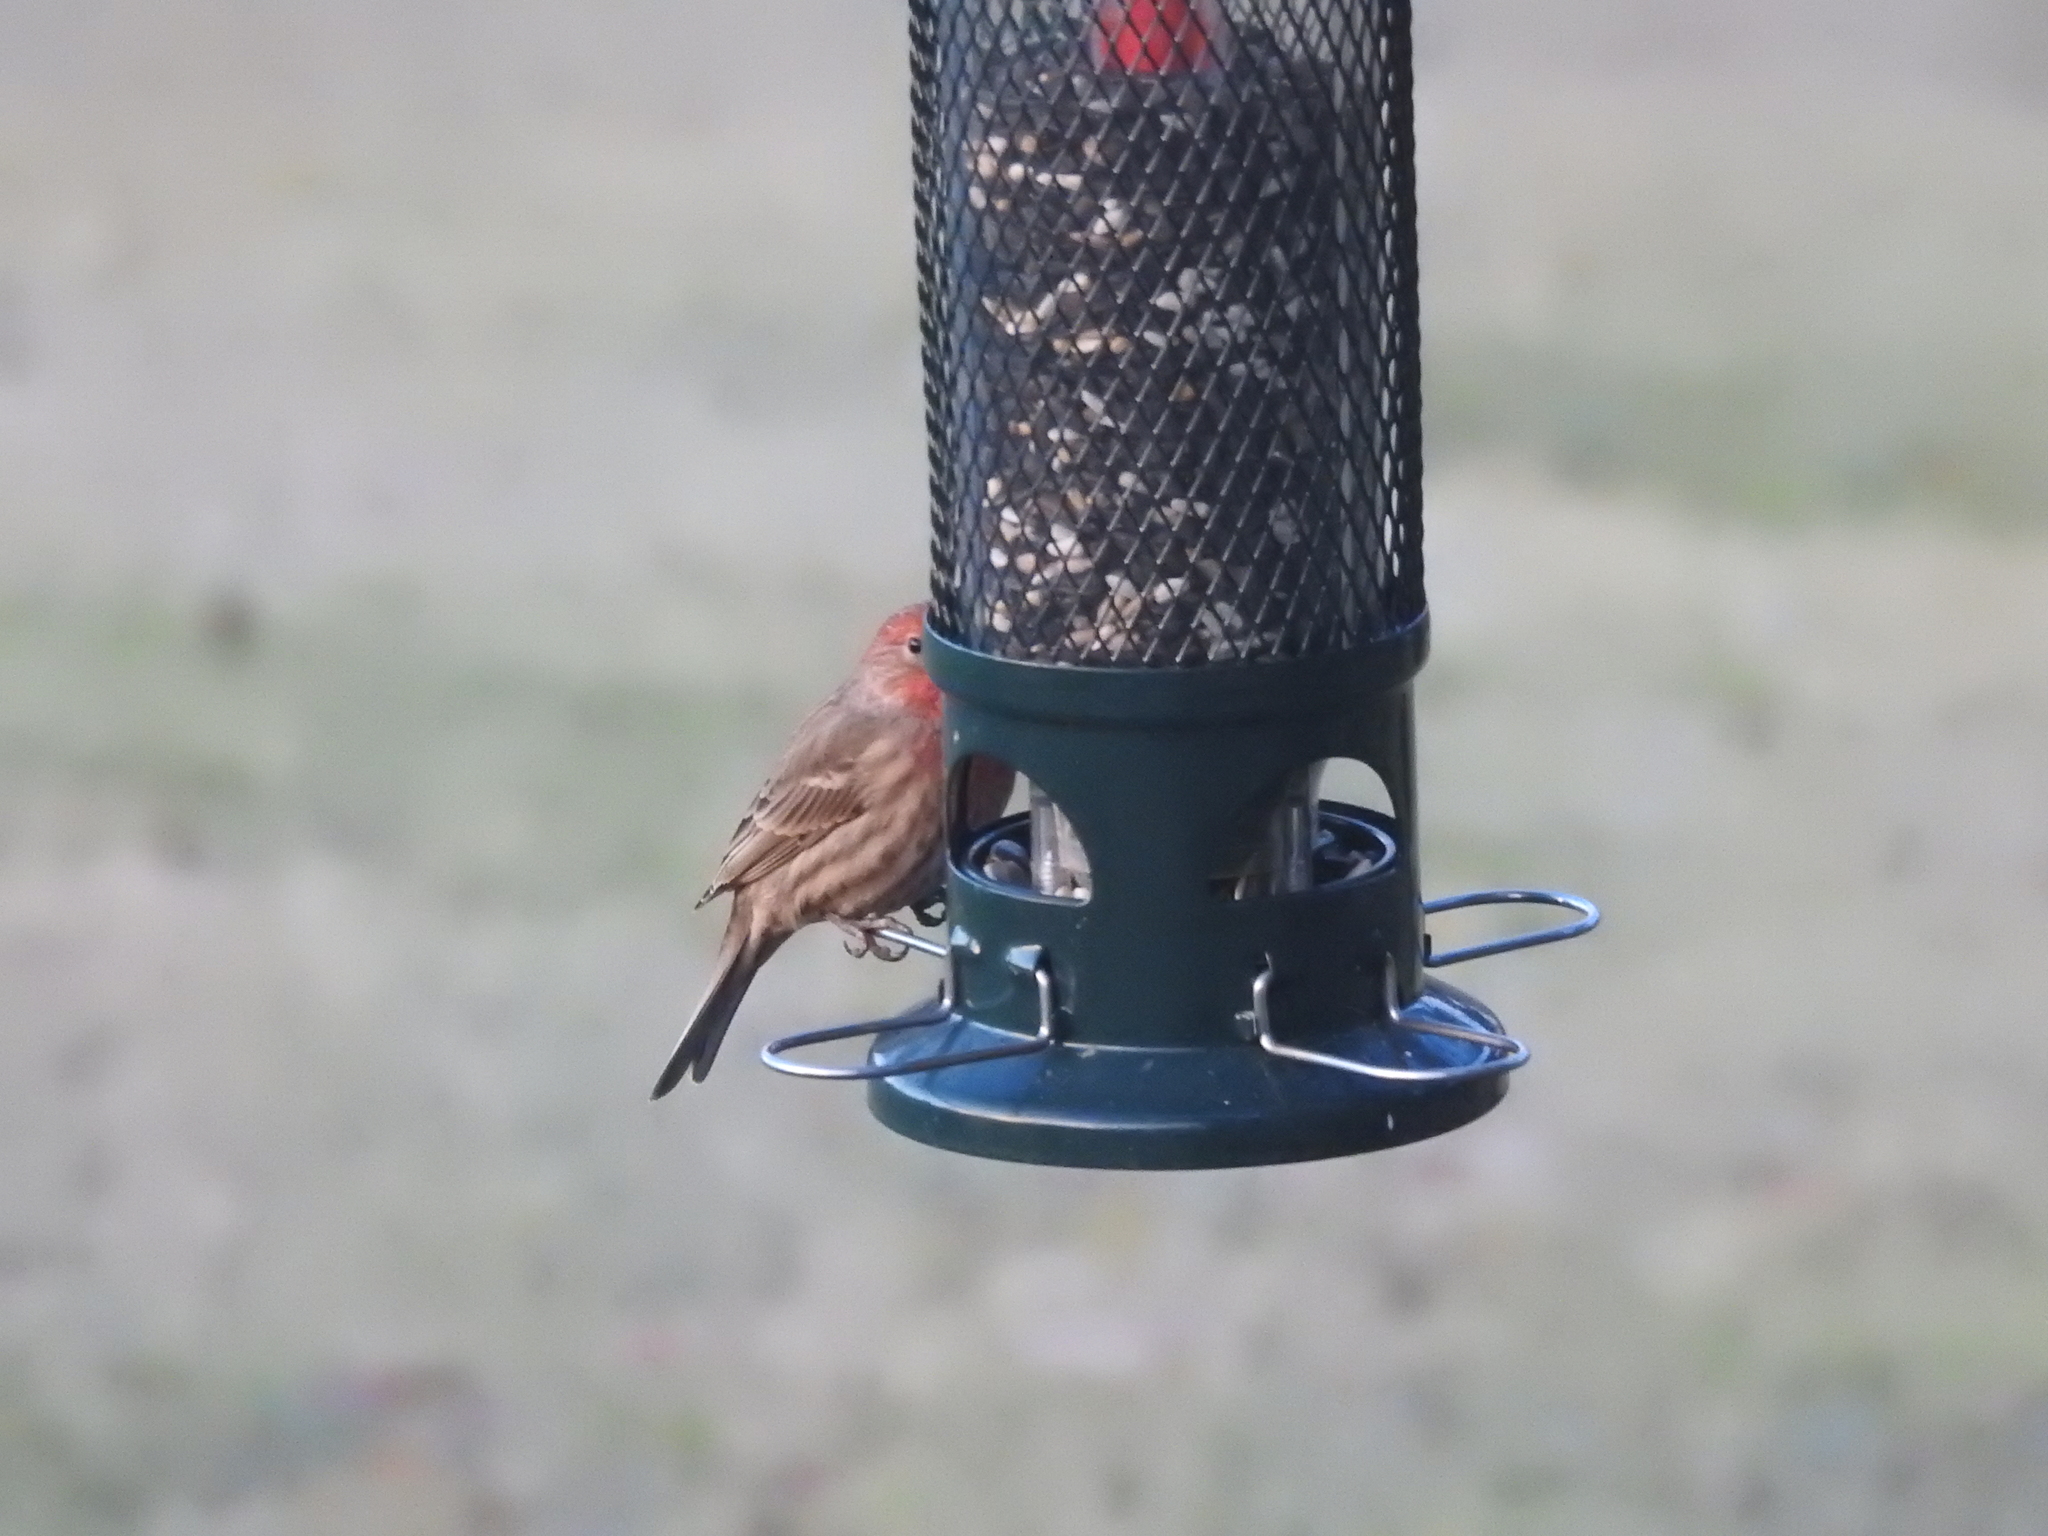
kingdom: Animalia
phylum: Chordata
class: Aves
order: Passeriformes
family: Fringillidae
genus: Haemorhous
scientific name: Haemorhous mexicanus
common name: House finch
